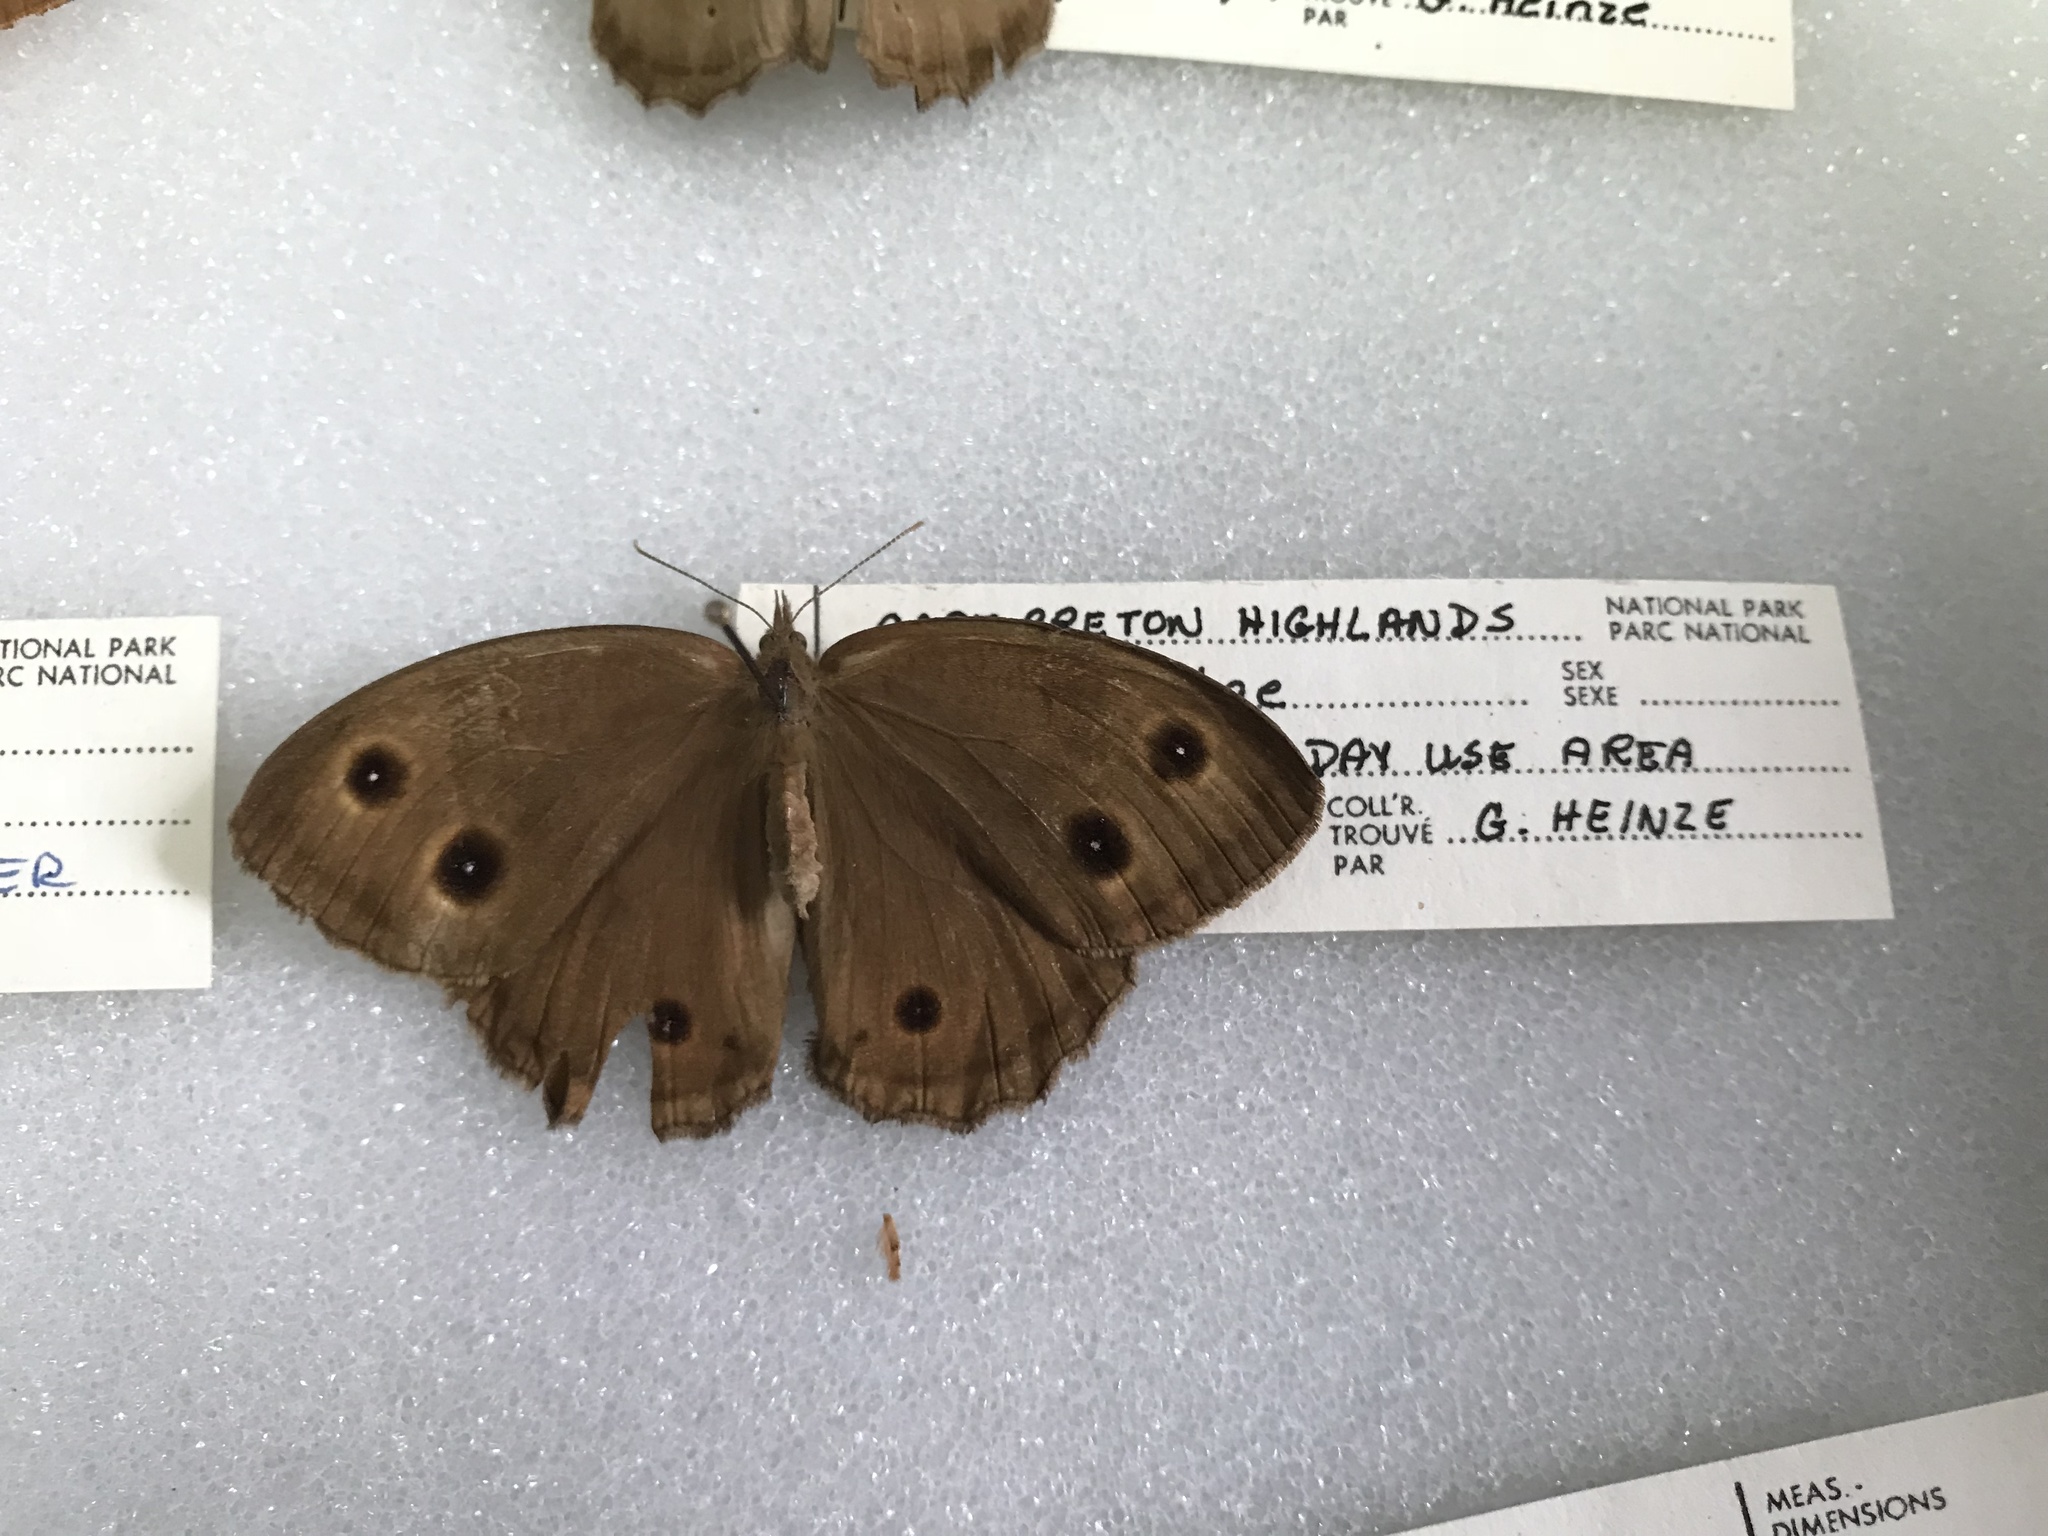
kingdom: Animalia
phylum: Arthropoda
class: Insecta
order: Lepidoptera
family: Nymphalidae
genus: Cercyonis
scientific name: Cercyonis pegala
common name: Common wood-nymph
